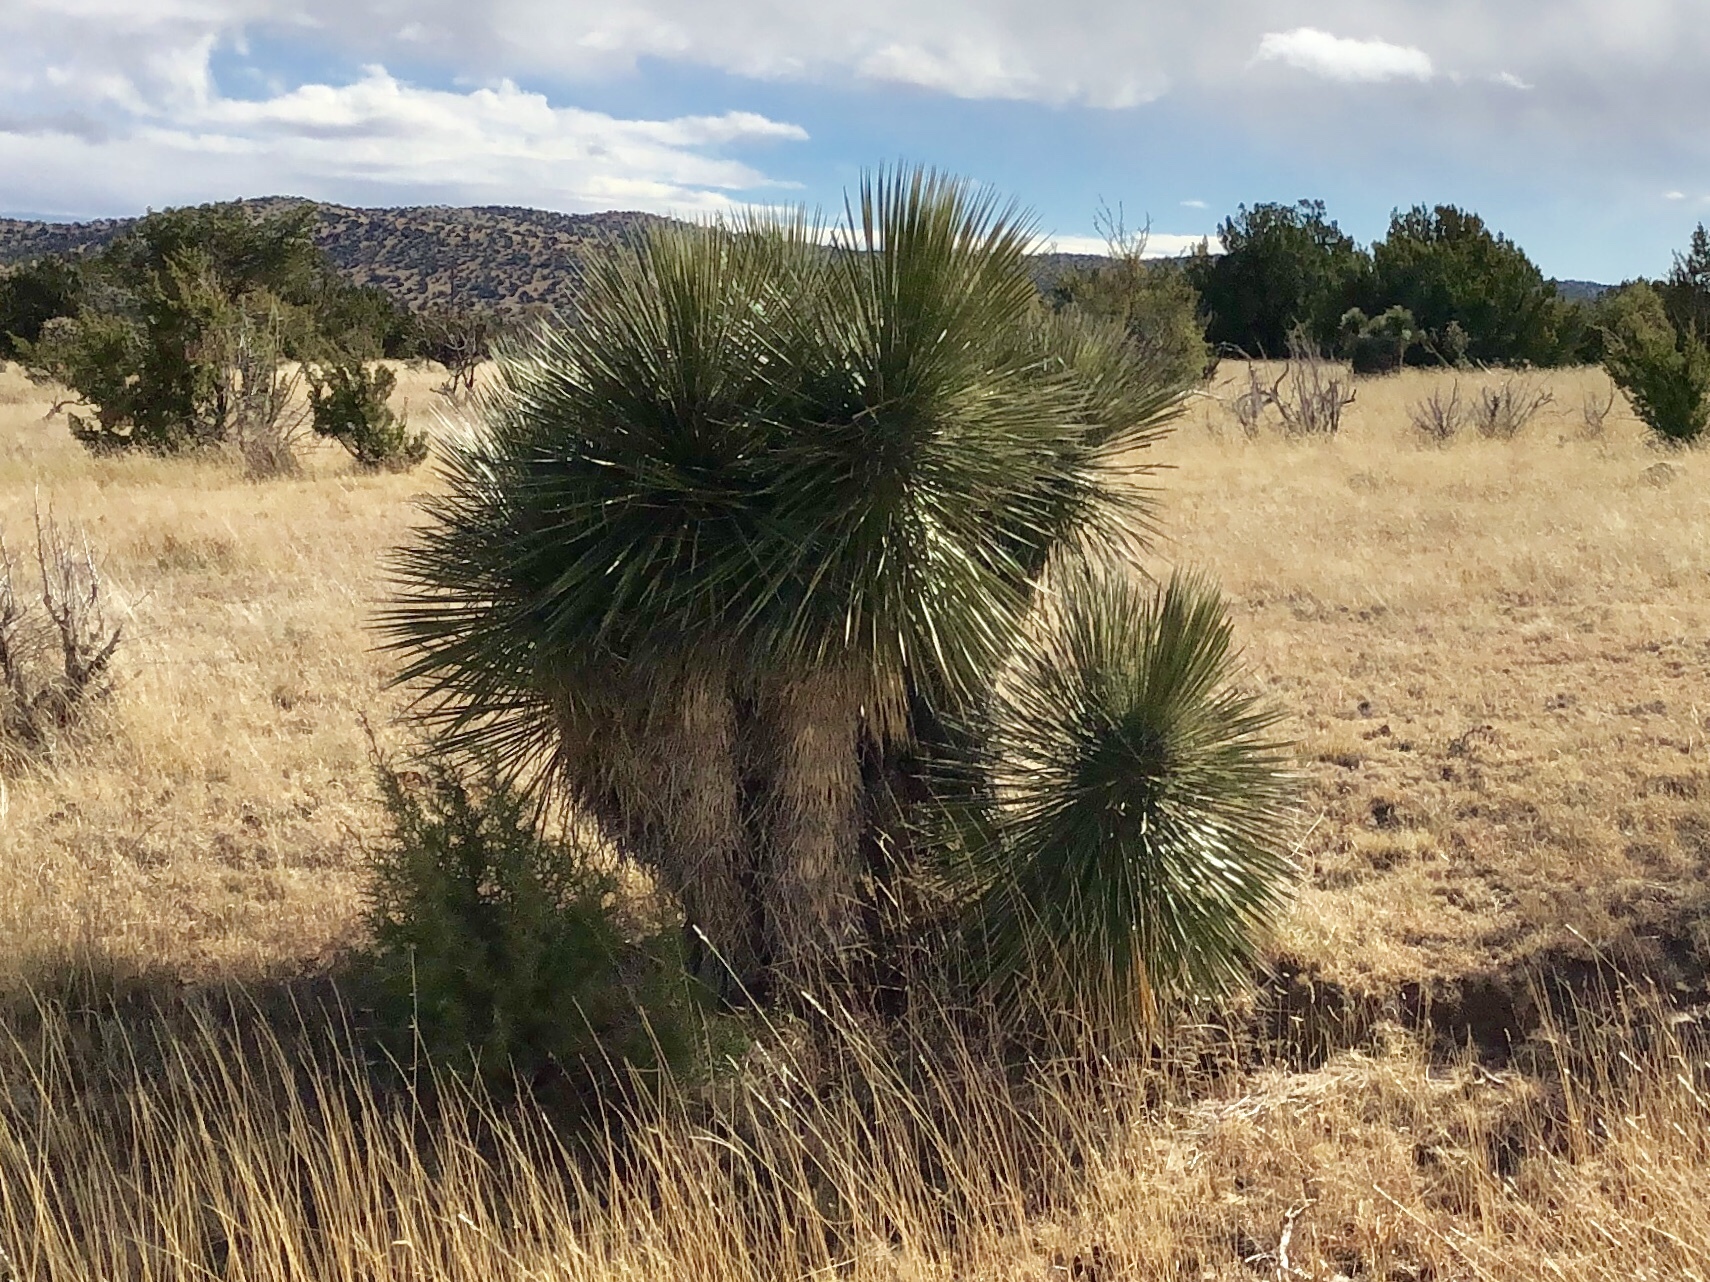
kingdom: Plantae
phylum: Tracheophyta
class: Liliopsida
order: Asparagales
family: Asparagaceae
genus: Yucca
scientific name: Yucca elata
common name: Palmella
